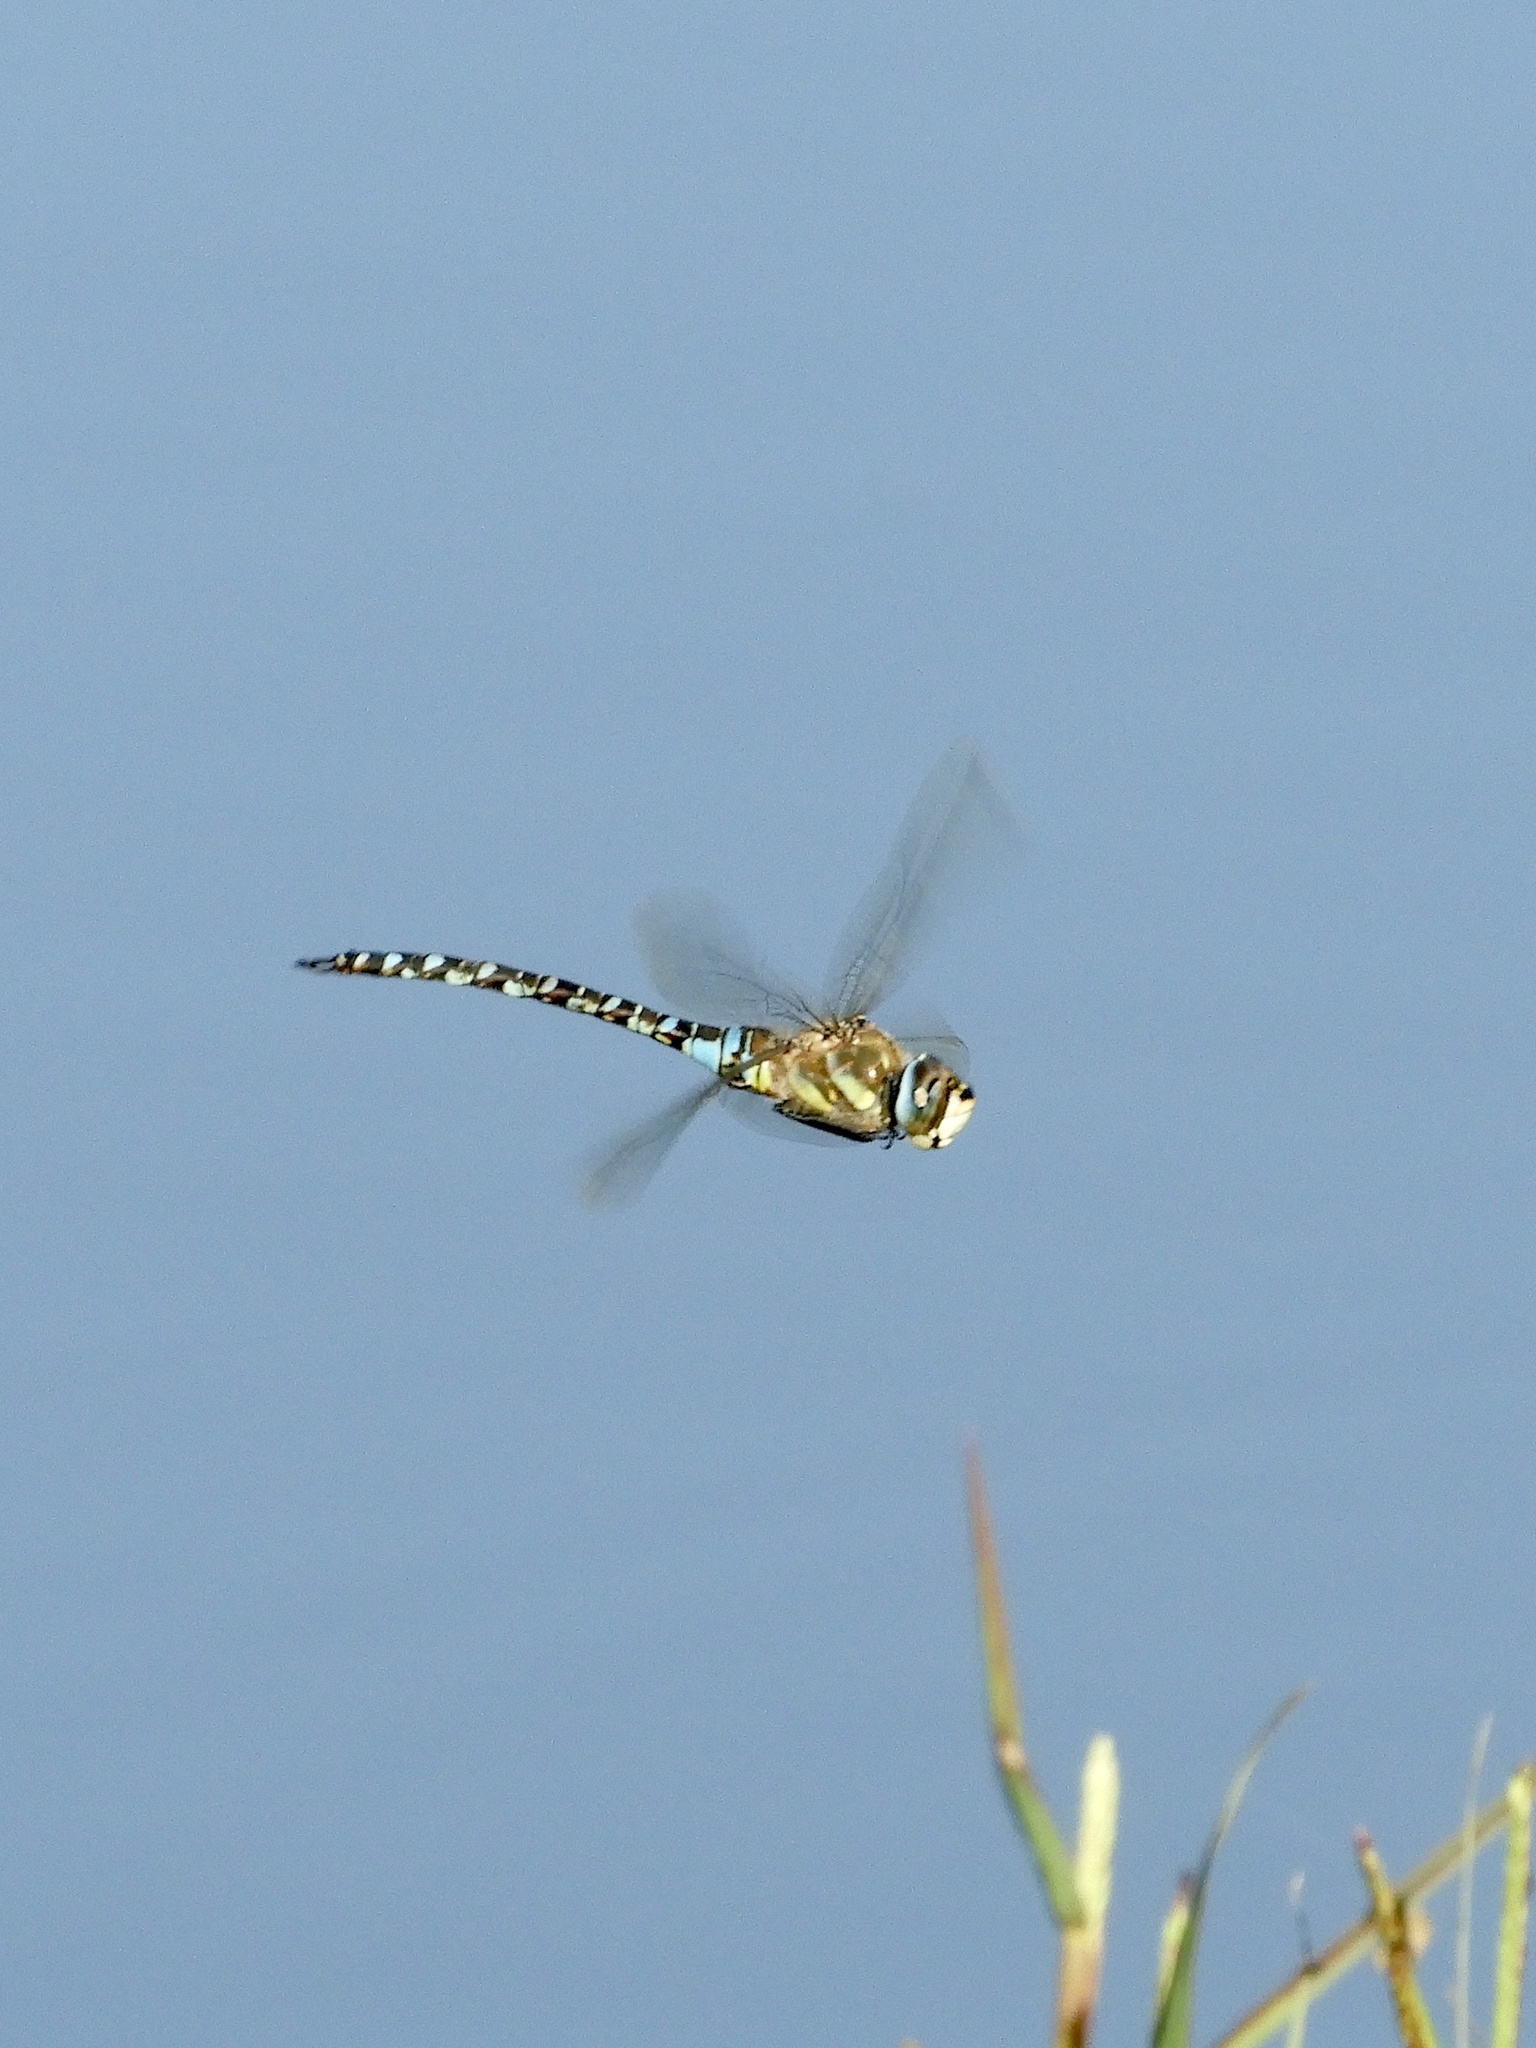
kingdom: Animalia
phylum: Arthropoda
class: Insecta
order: Odonata
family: Aeshnidae
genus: Aeshna
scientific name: Aeshna mixta
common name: Migrant hawker
